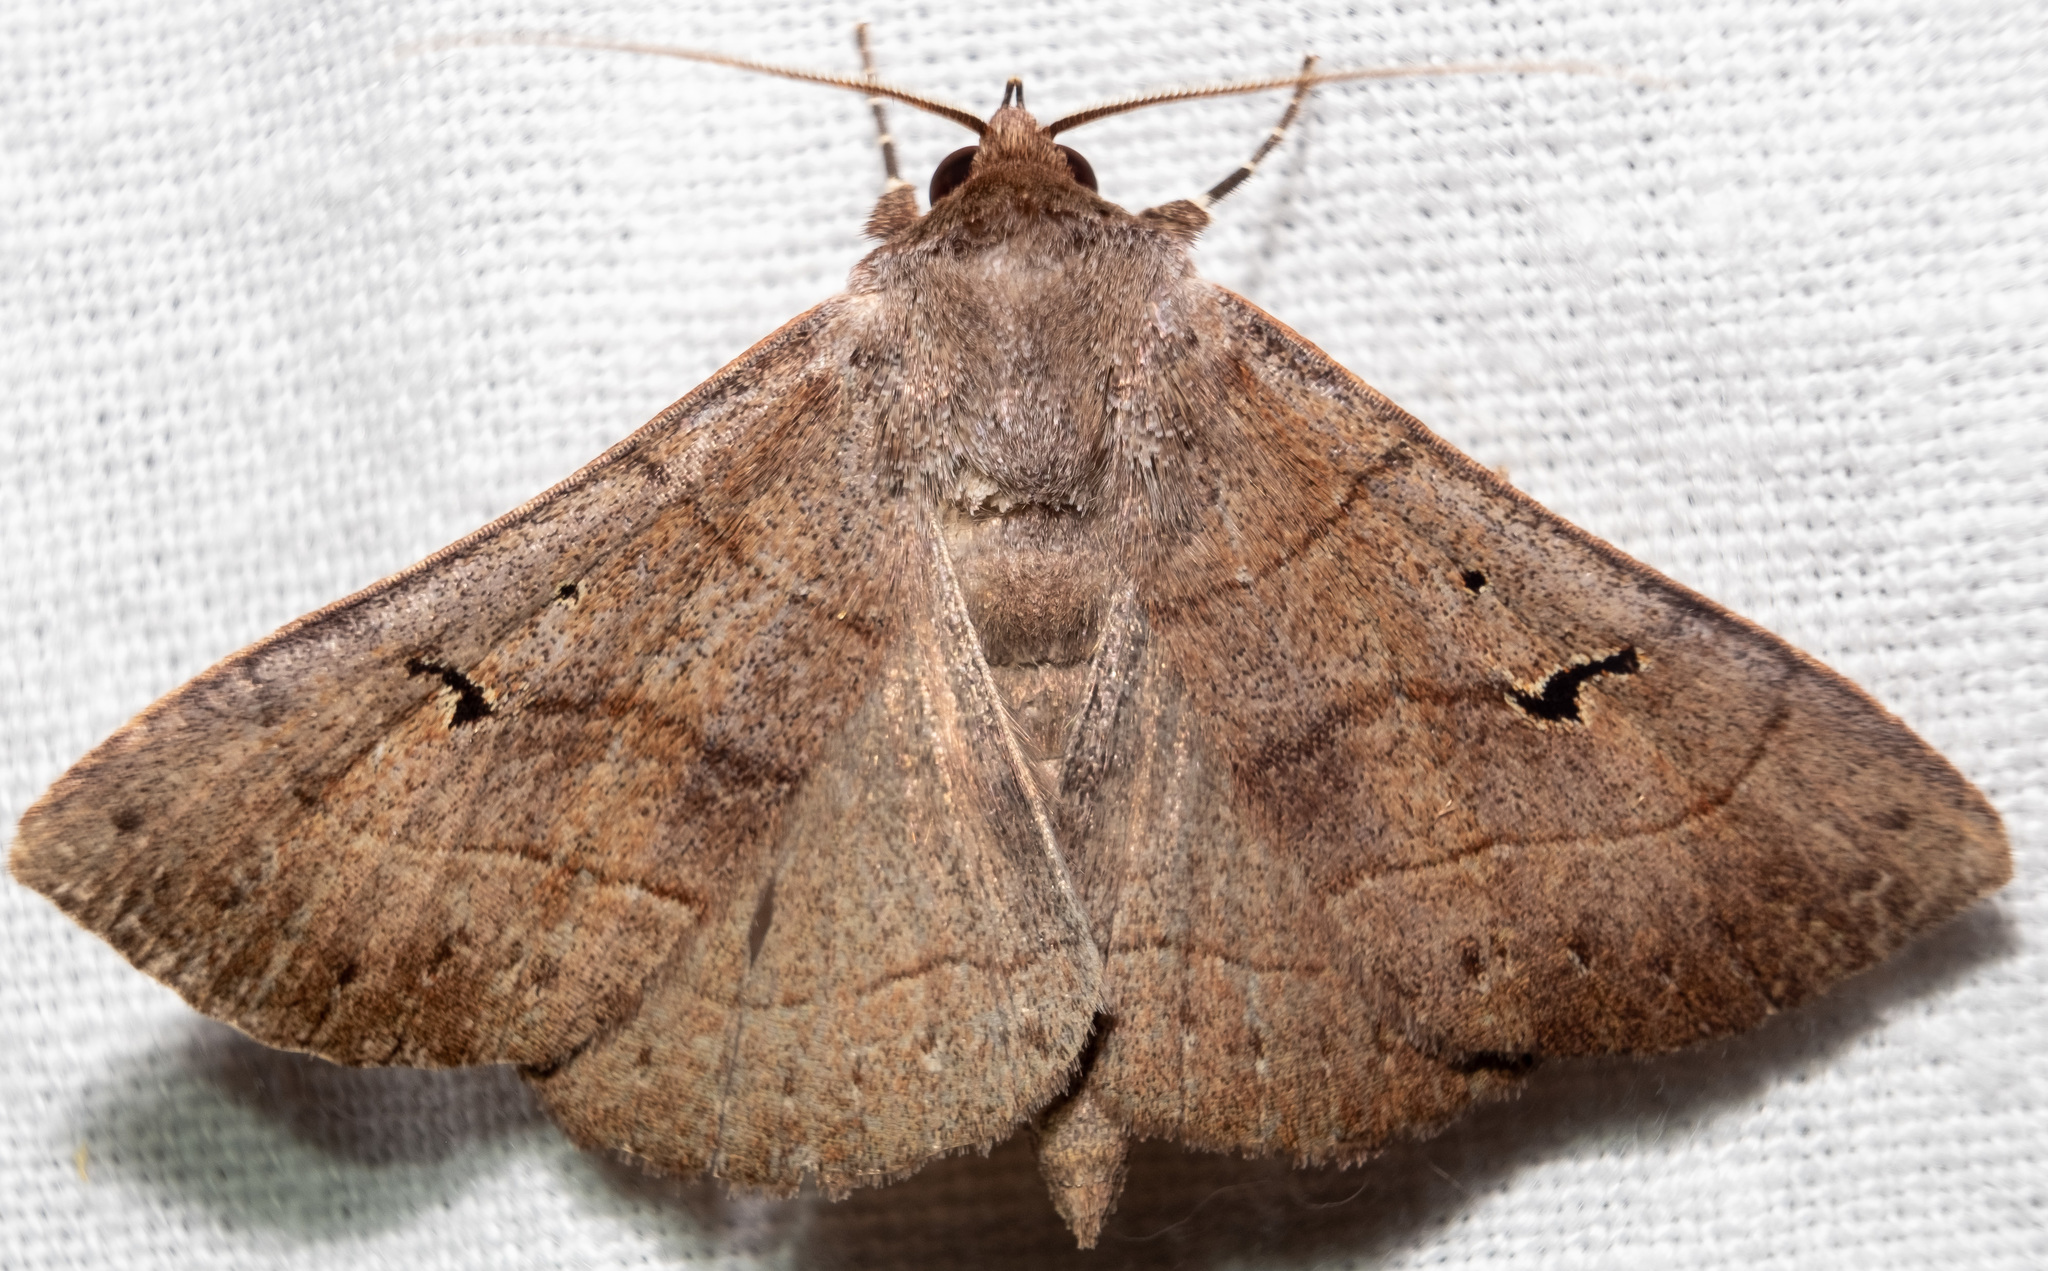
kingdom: Animalia
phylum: Arthropoda
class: Insecta
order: Lepidoptera
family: Erebidae
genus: Panopoda
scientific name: Panopoda carneicosta
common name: Brown panopoda moth
